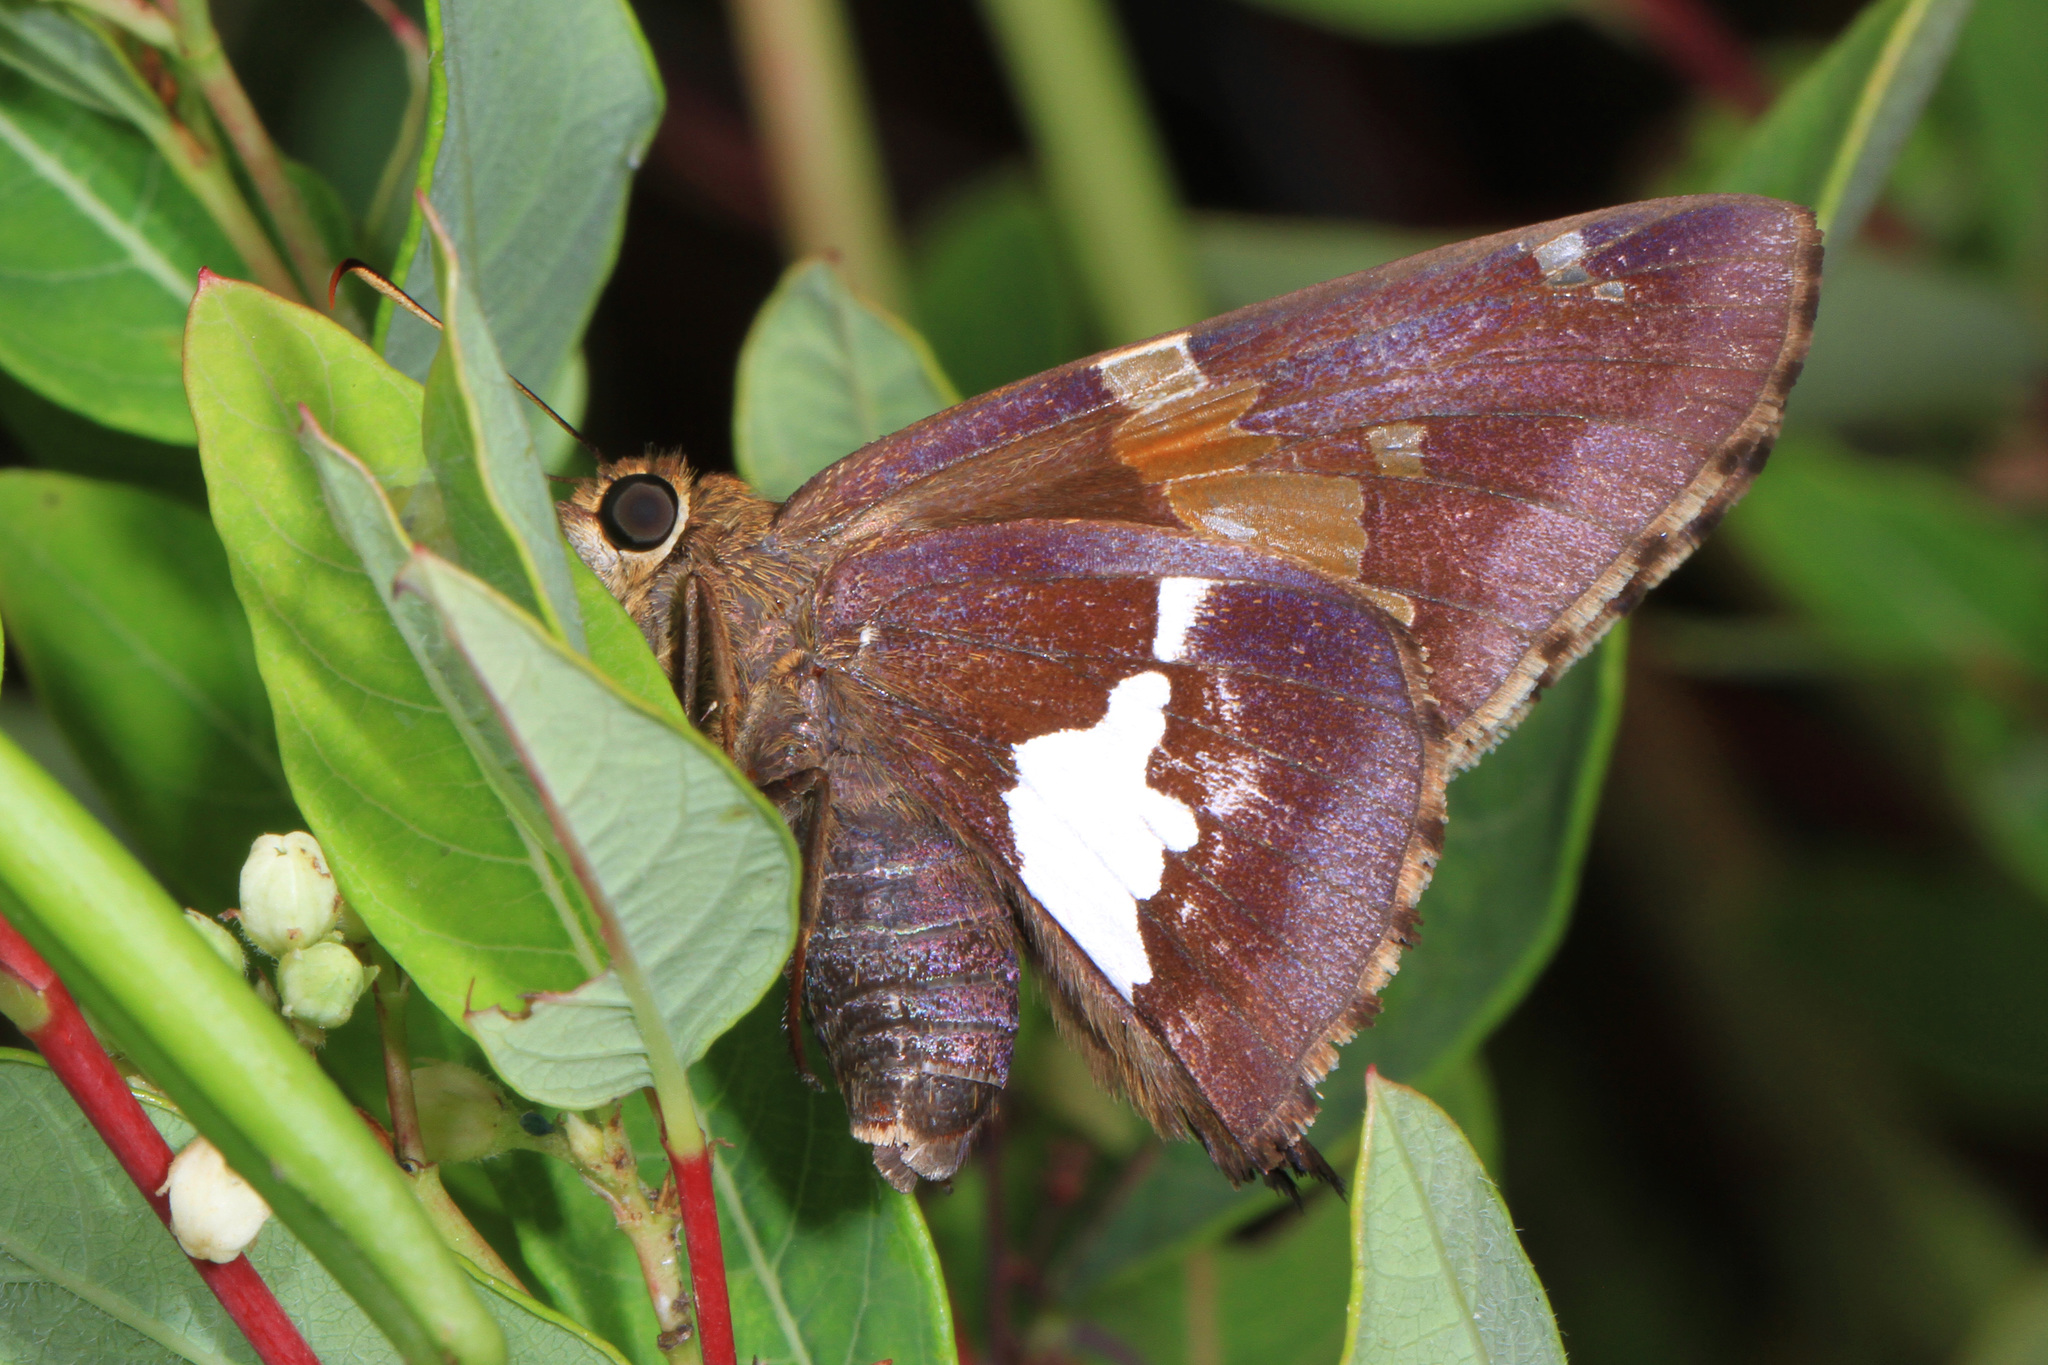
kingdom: Animalia
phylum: Arthropoda
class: Insecta
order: Lepidoptera
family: Hesperiidae
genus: Epargyreus
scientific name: Epargyreus clarus
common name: Silver-spotted skipper
